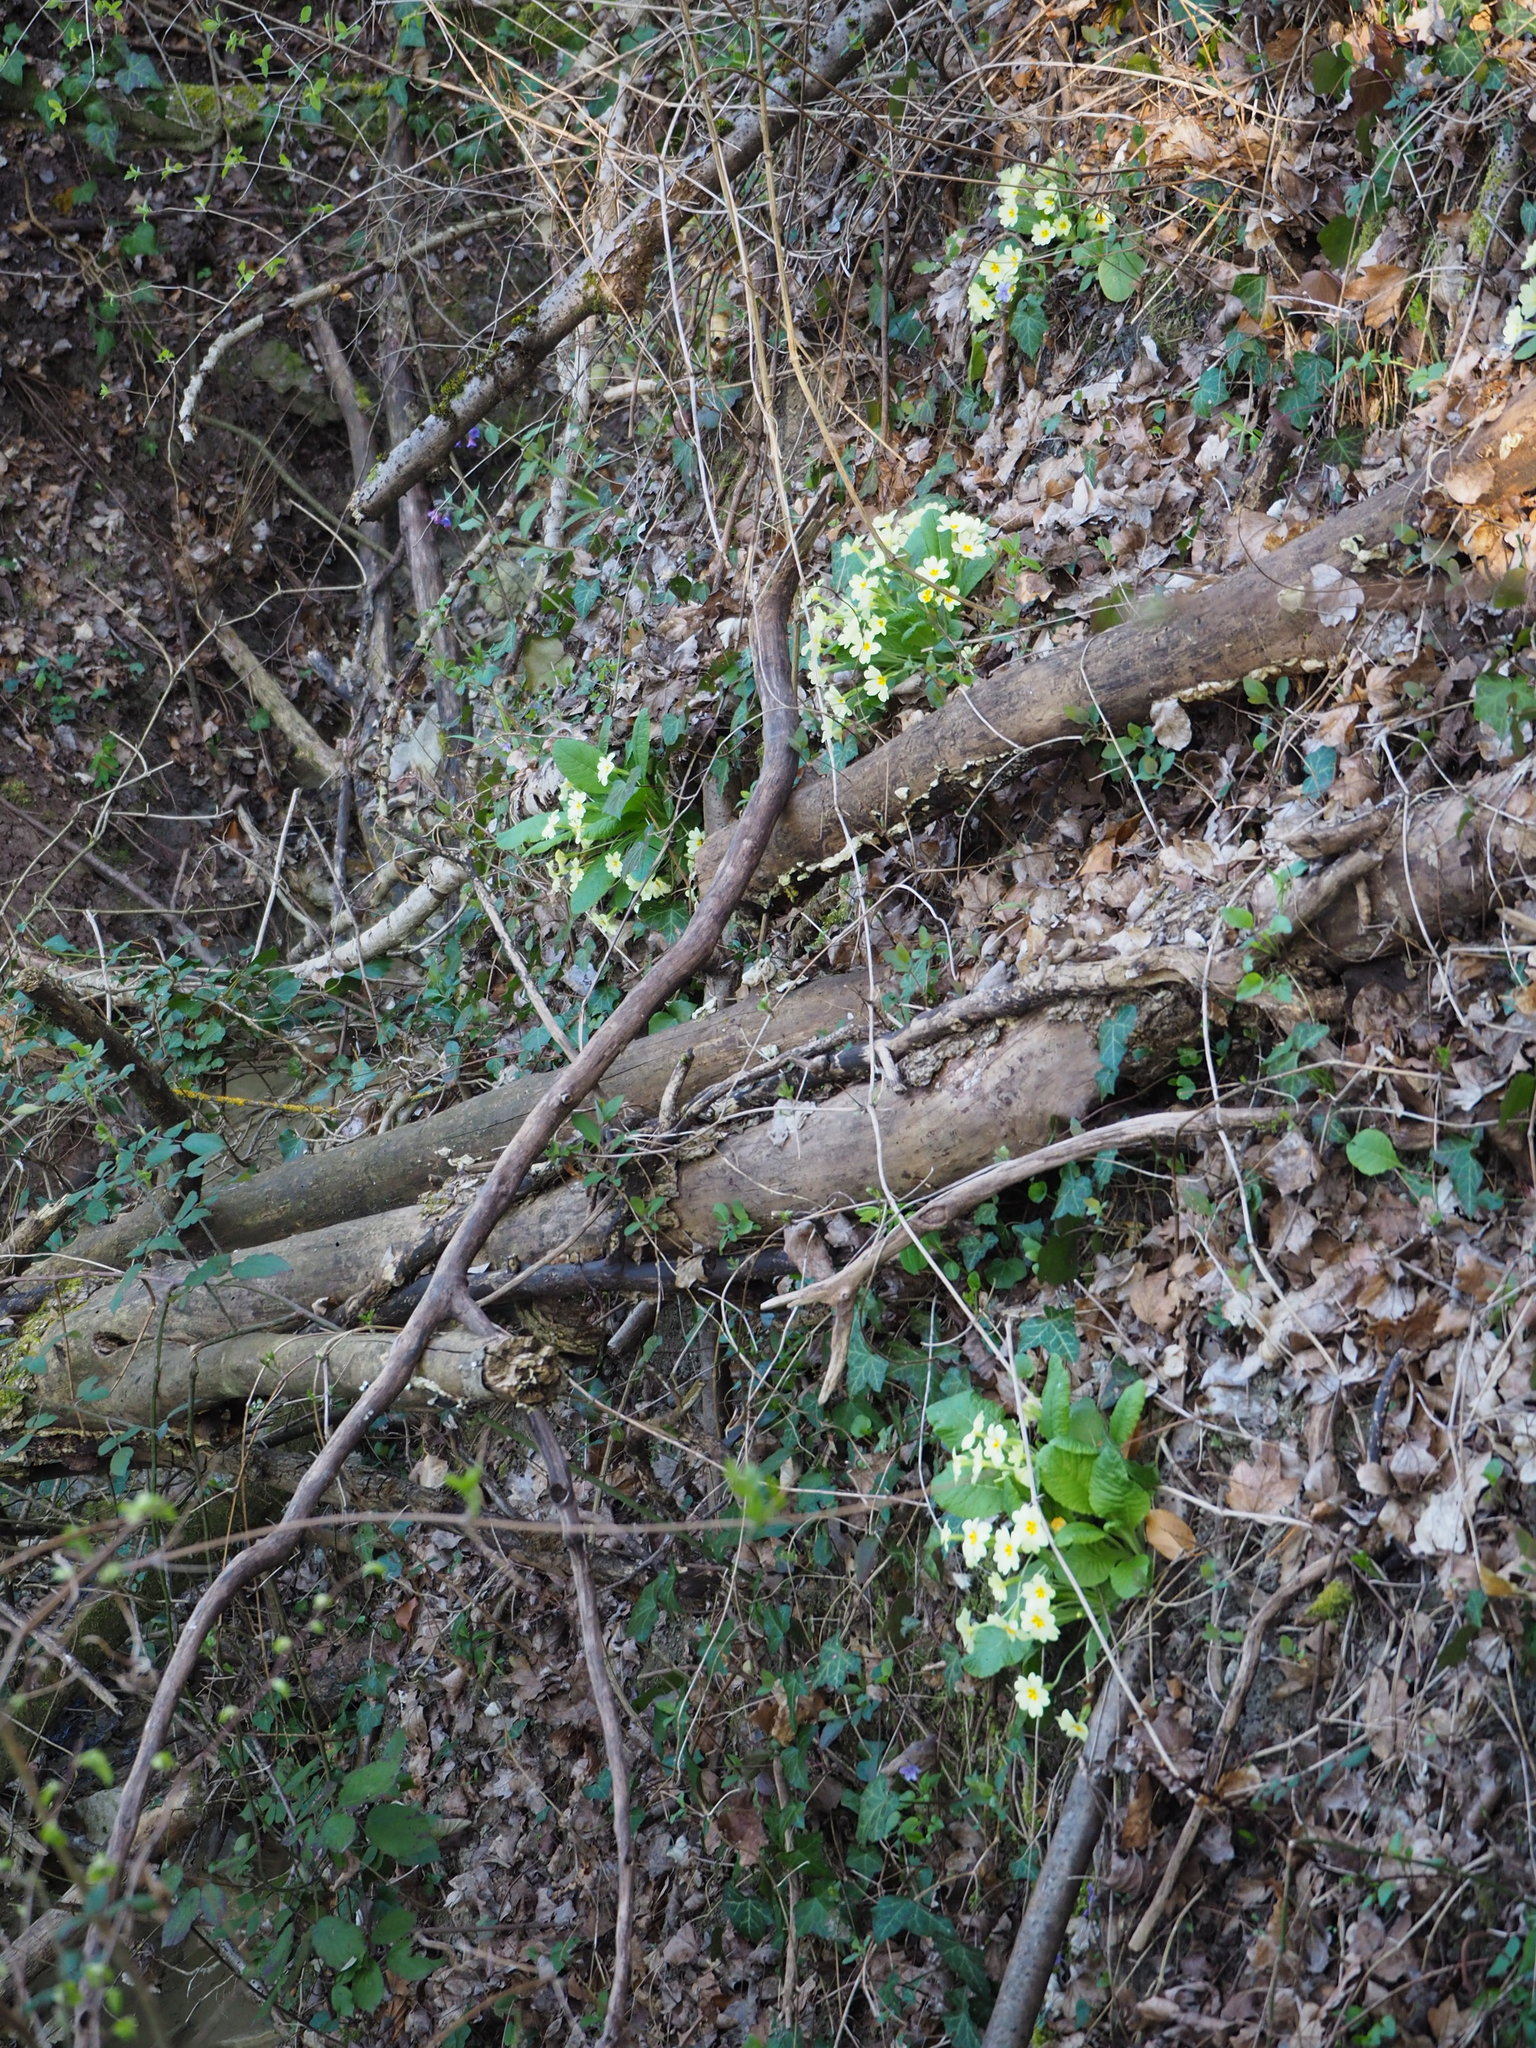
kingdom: Plantae
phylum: Tracheophyta
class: Magnoliopsida
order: Ericales
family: Primulaceae
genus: Primula
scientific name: Primula vulgaris
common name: Primrose
